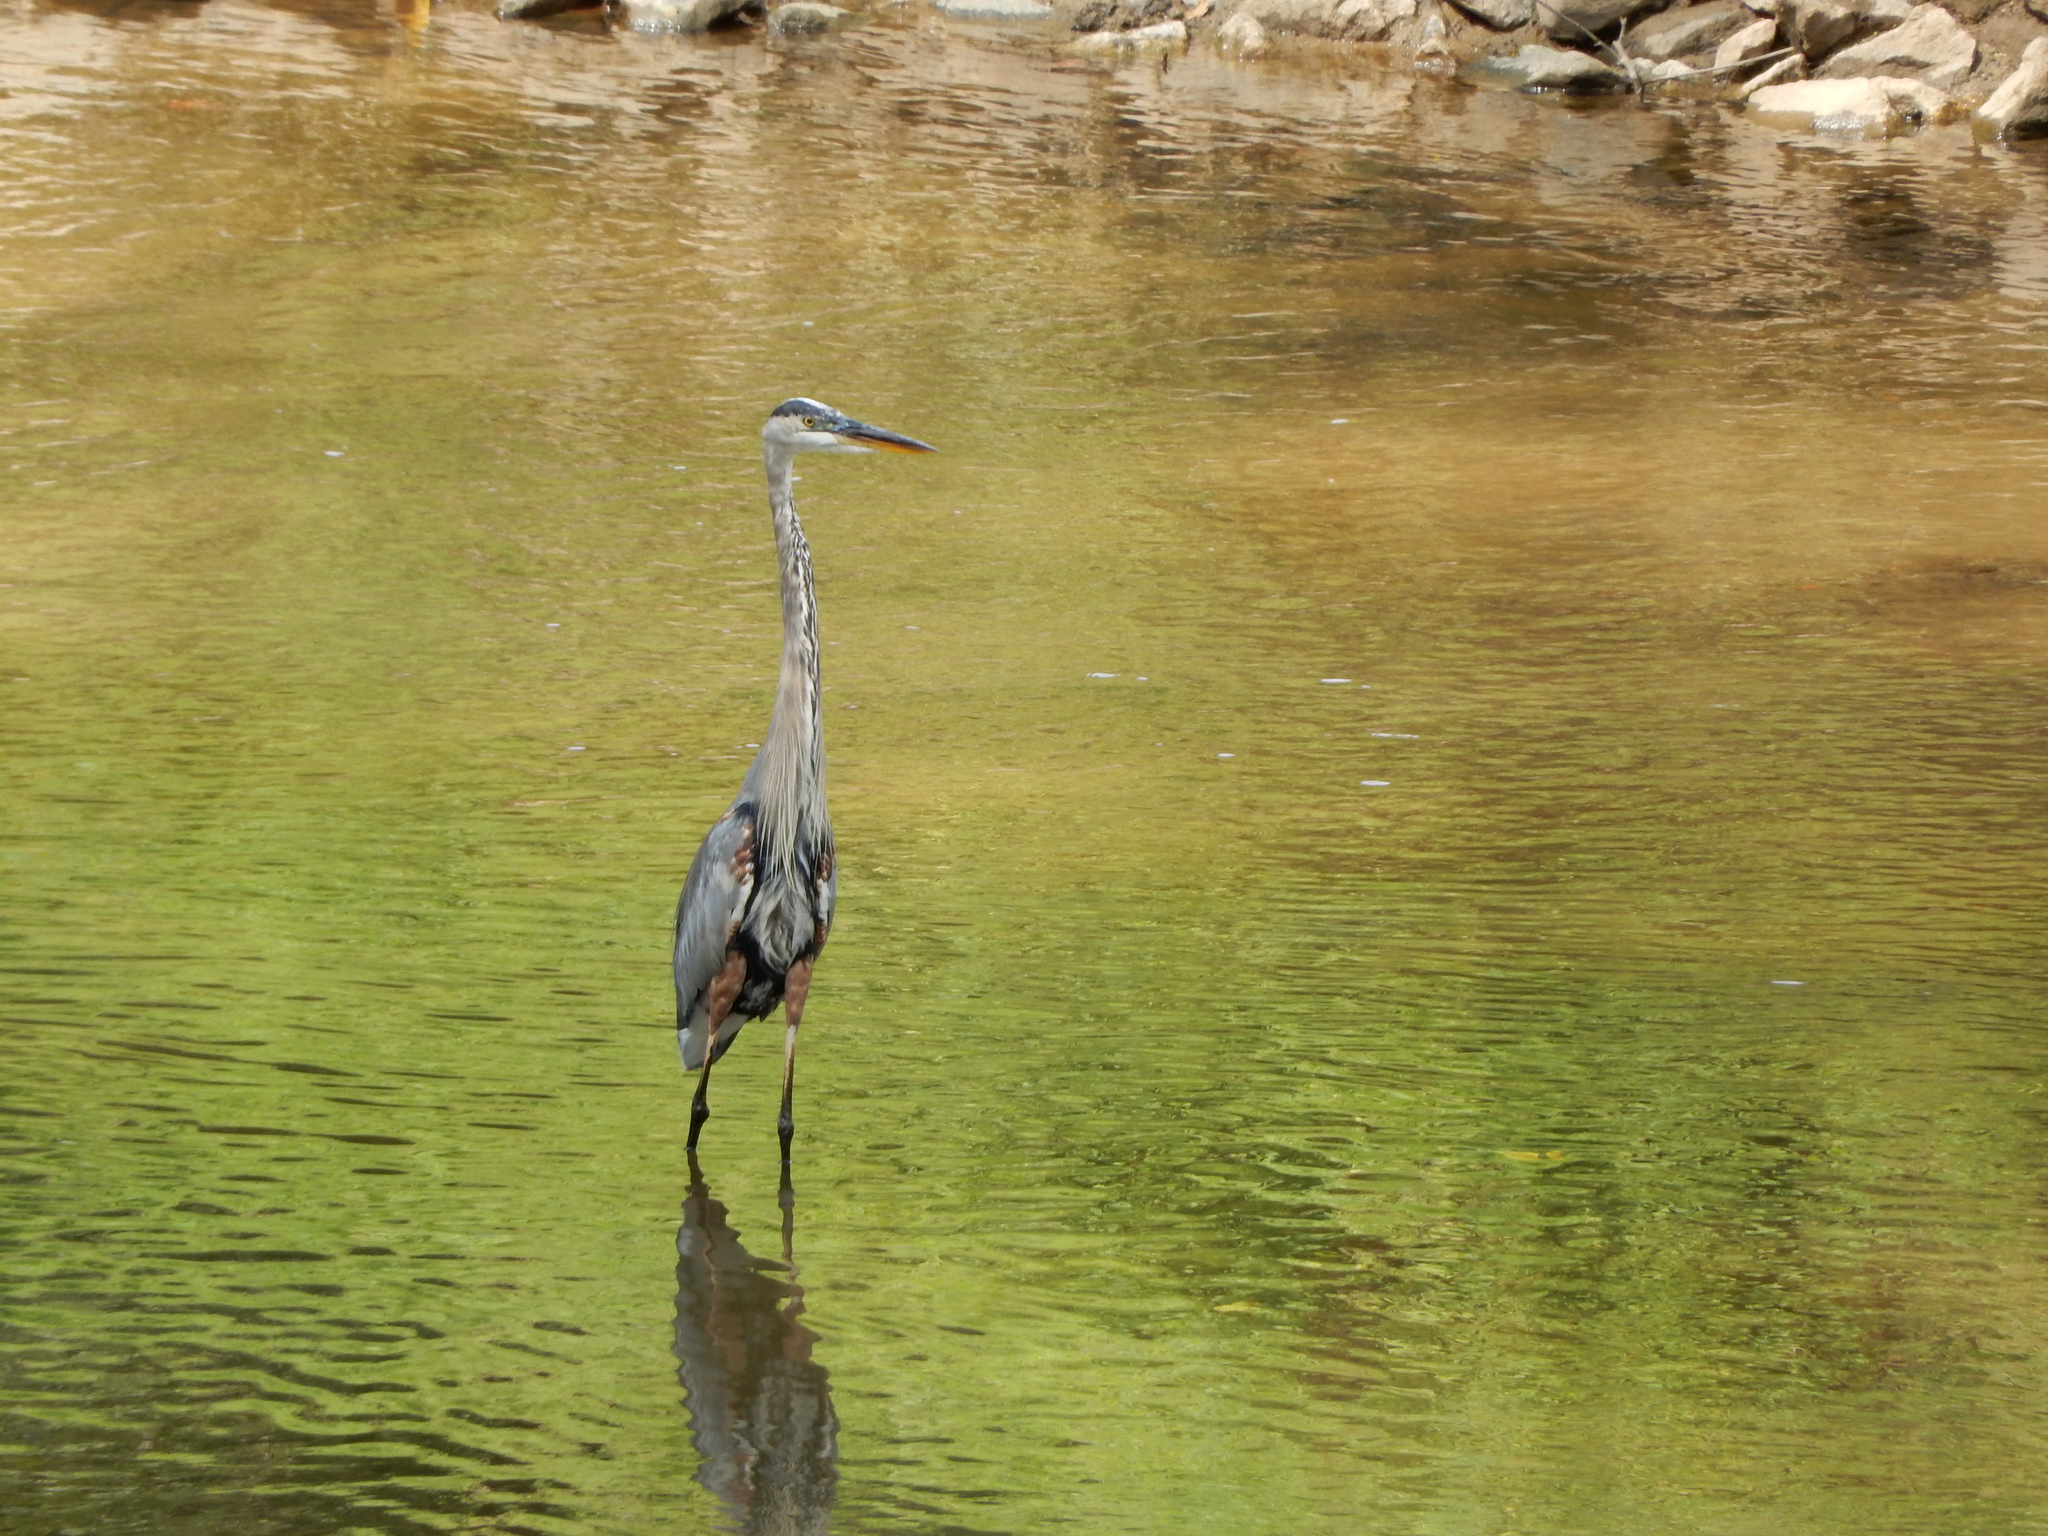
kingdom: Animalia
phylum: Chordata
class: Aves
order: Pelecaniformes
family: Ardeidae
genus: Ardea
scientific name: Ardea herodias
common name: Great blue heron
